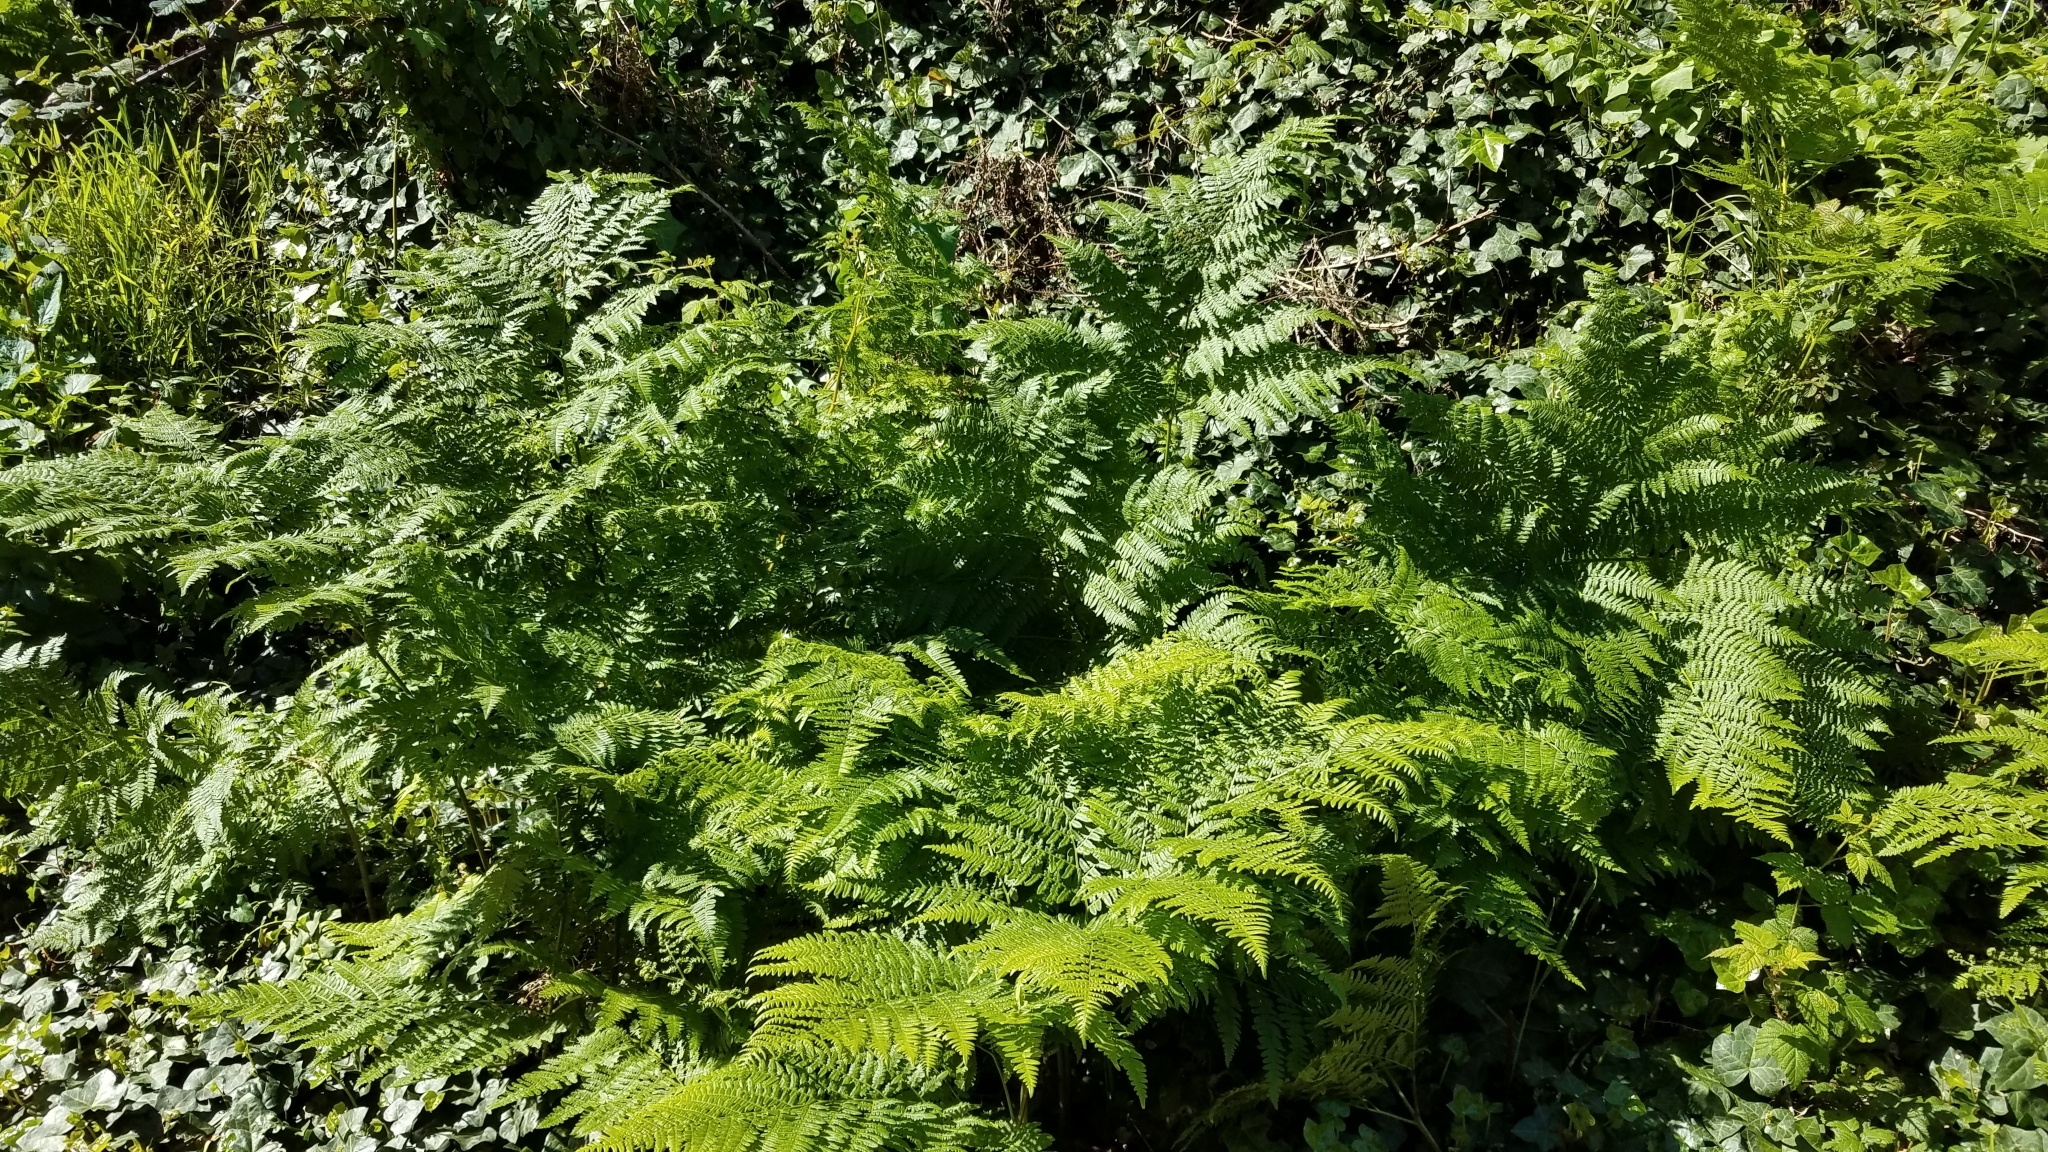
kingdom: Plantae
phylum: Tracheophyta
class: Polypodiopsida
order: Polypodiales
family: Dennstaedtiaceae
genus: Pteridium
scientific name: Pteridium aquilinum
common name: Bracken
